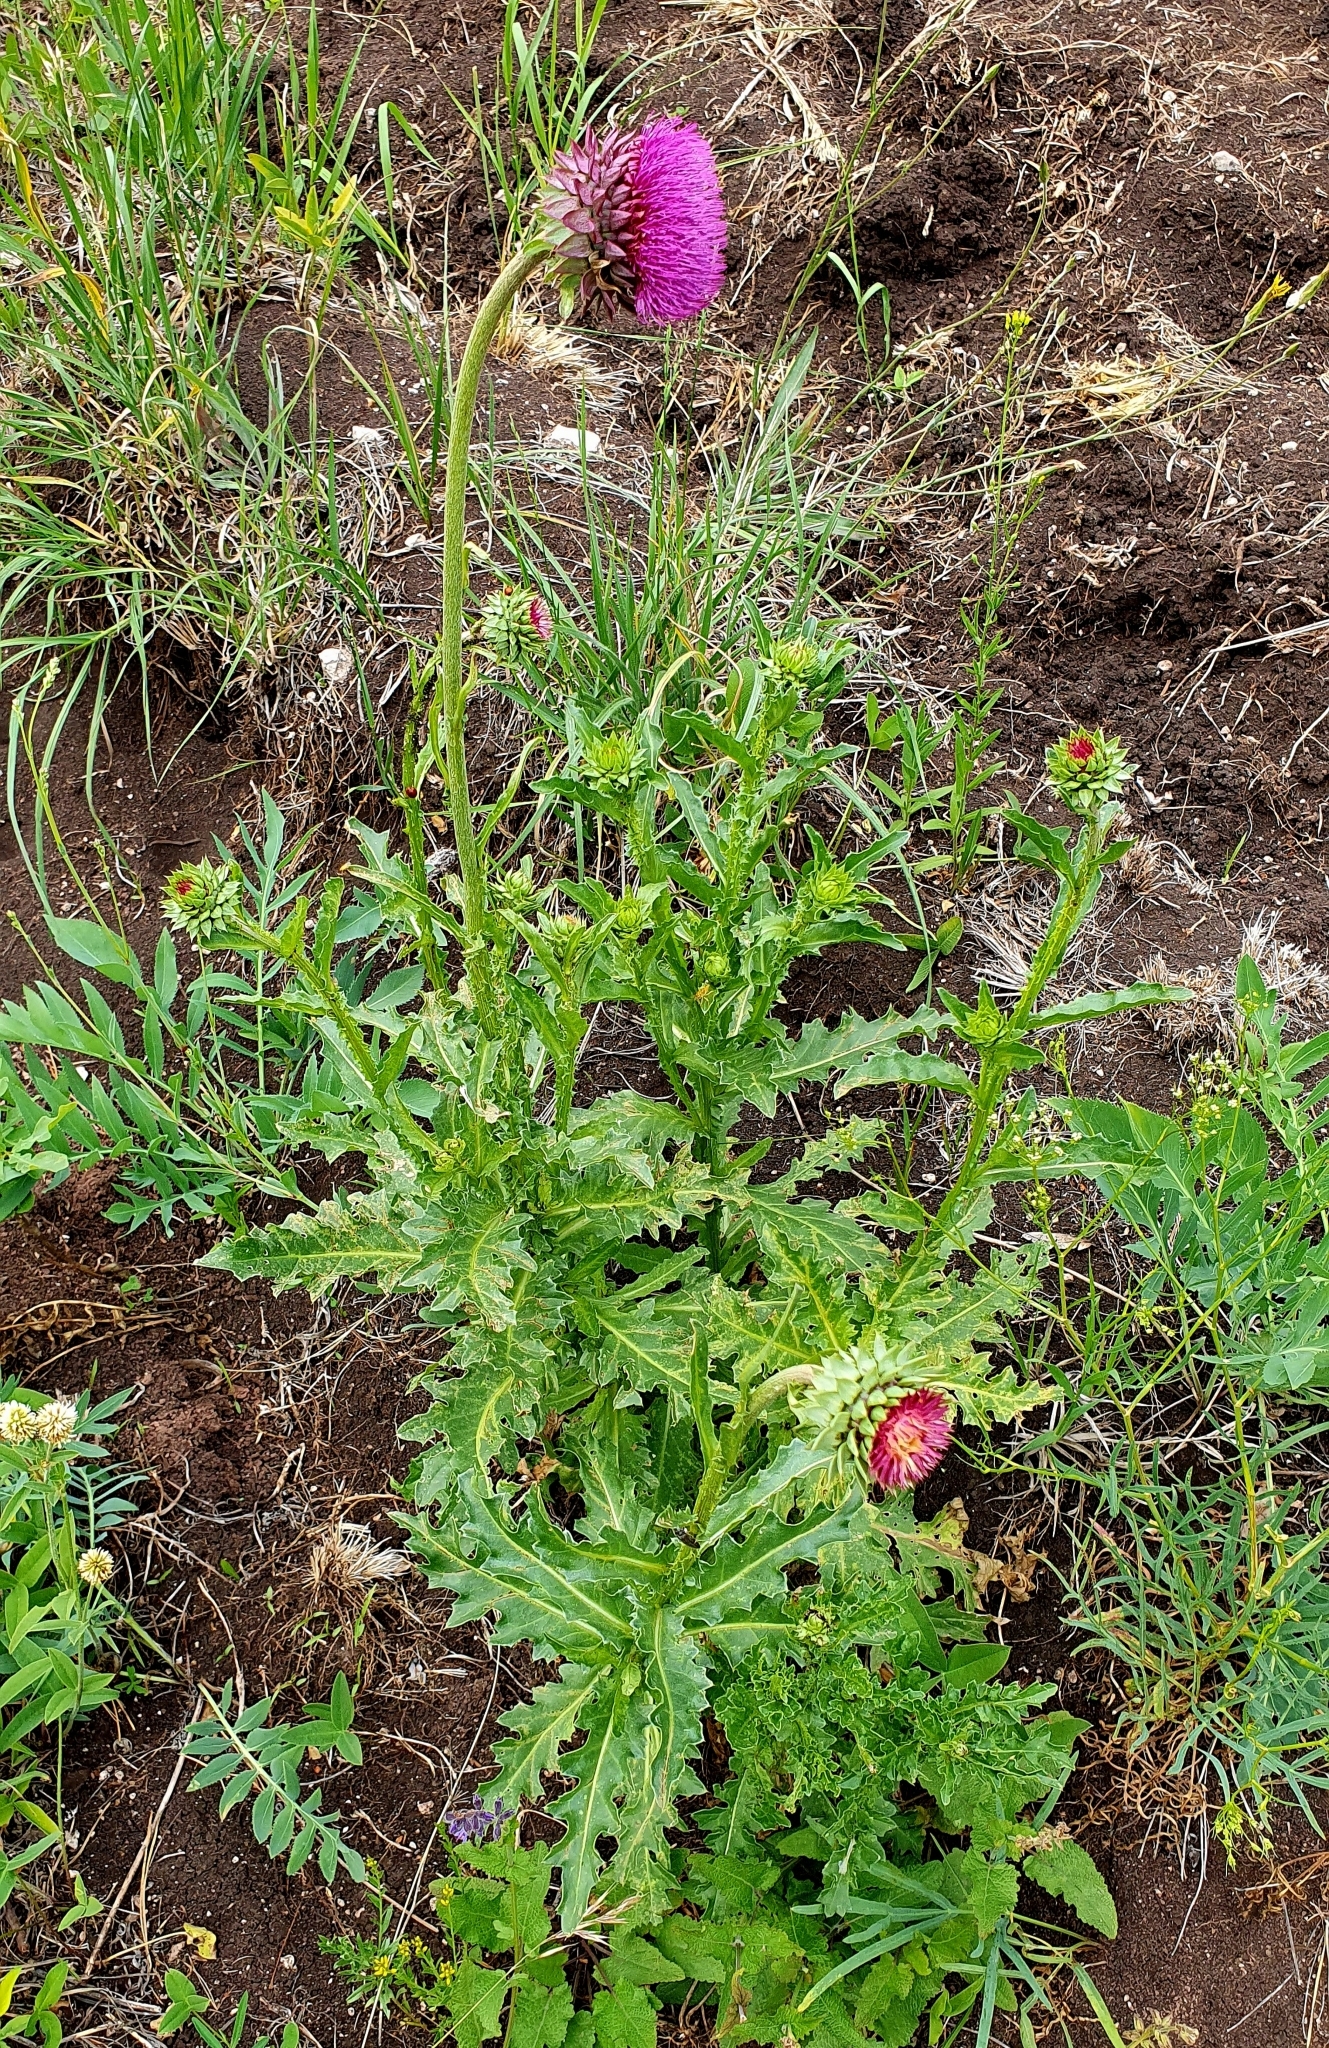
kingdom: Plantae
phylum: Tracheophyta
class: Magnoliopsida
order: Asterales
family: Asteraceae
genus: Carduus
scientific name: Carduus nutans
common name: Musk thistle
